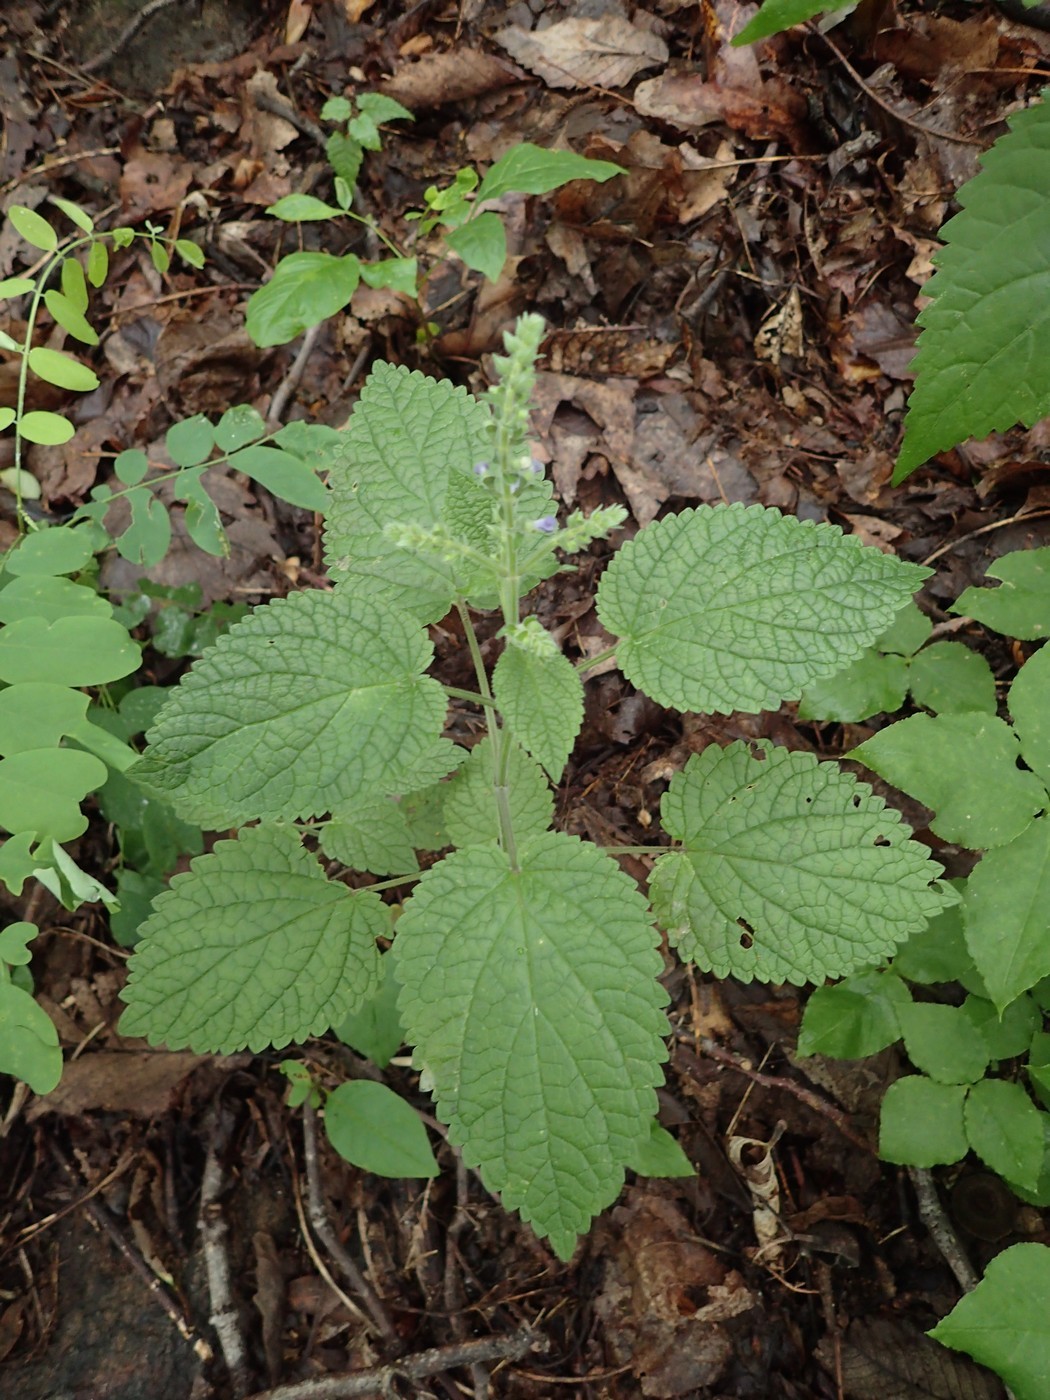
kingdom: Plantae
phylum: Tracheophyta
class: Magnoliopsida
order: Lamiales
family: Lamiaceae
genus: Scutellaria
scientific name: Scutellaria ovata
